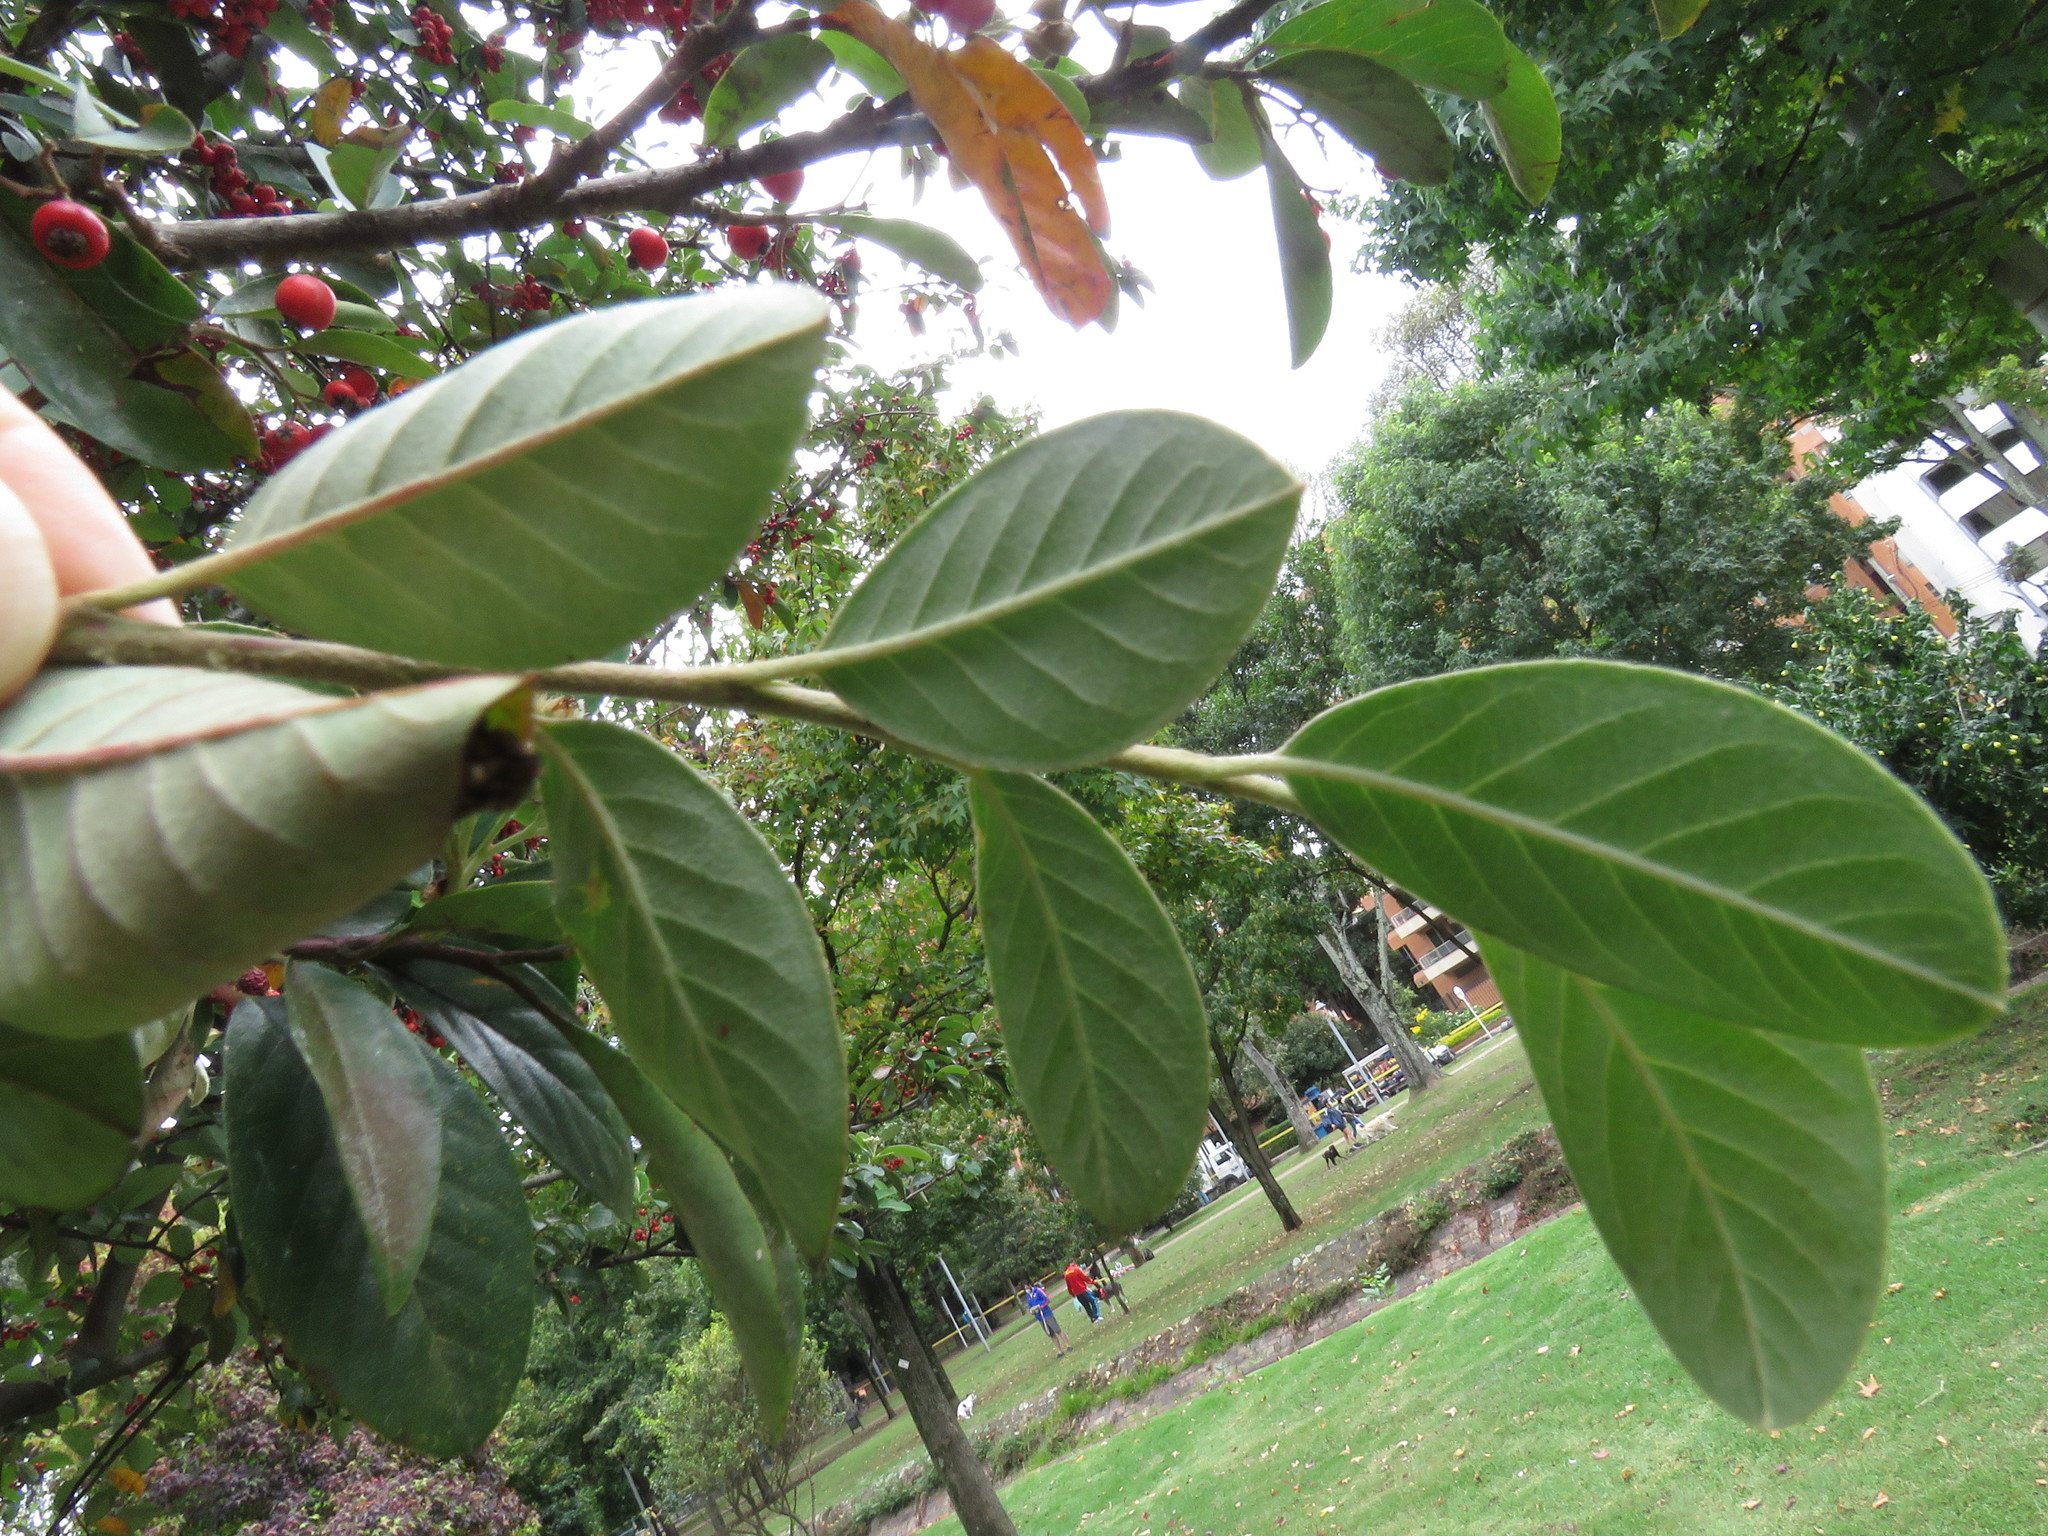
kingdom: Animalia
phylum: Chordata
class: Aves
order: Passeriformes
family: Turdidae
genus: Turdus
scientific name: Turdus fuscater
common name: Great thrush
